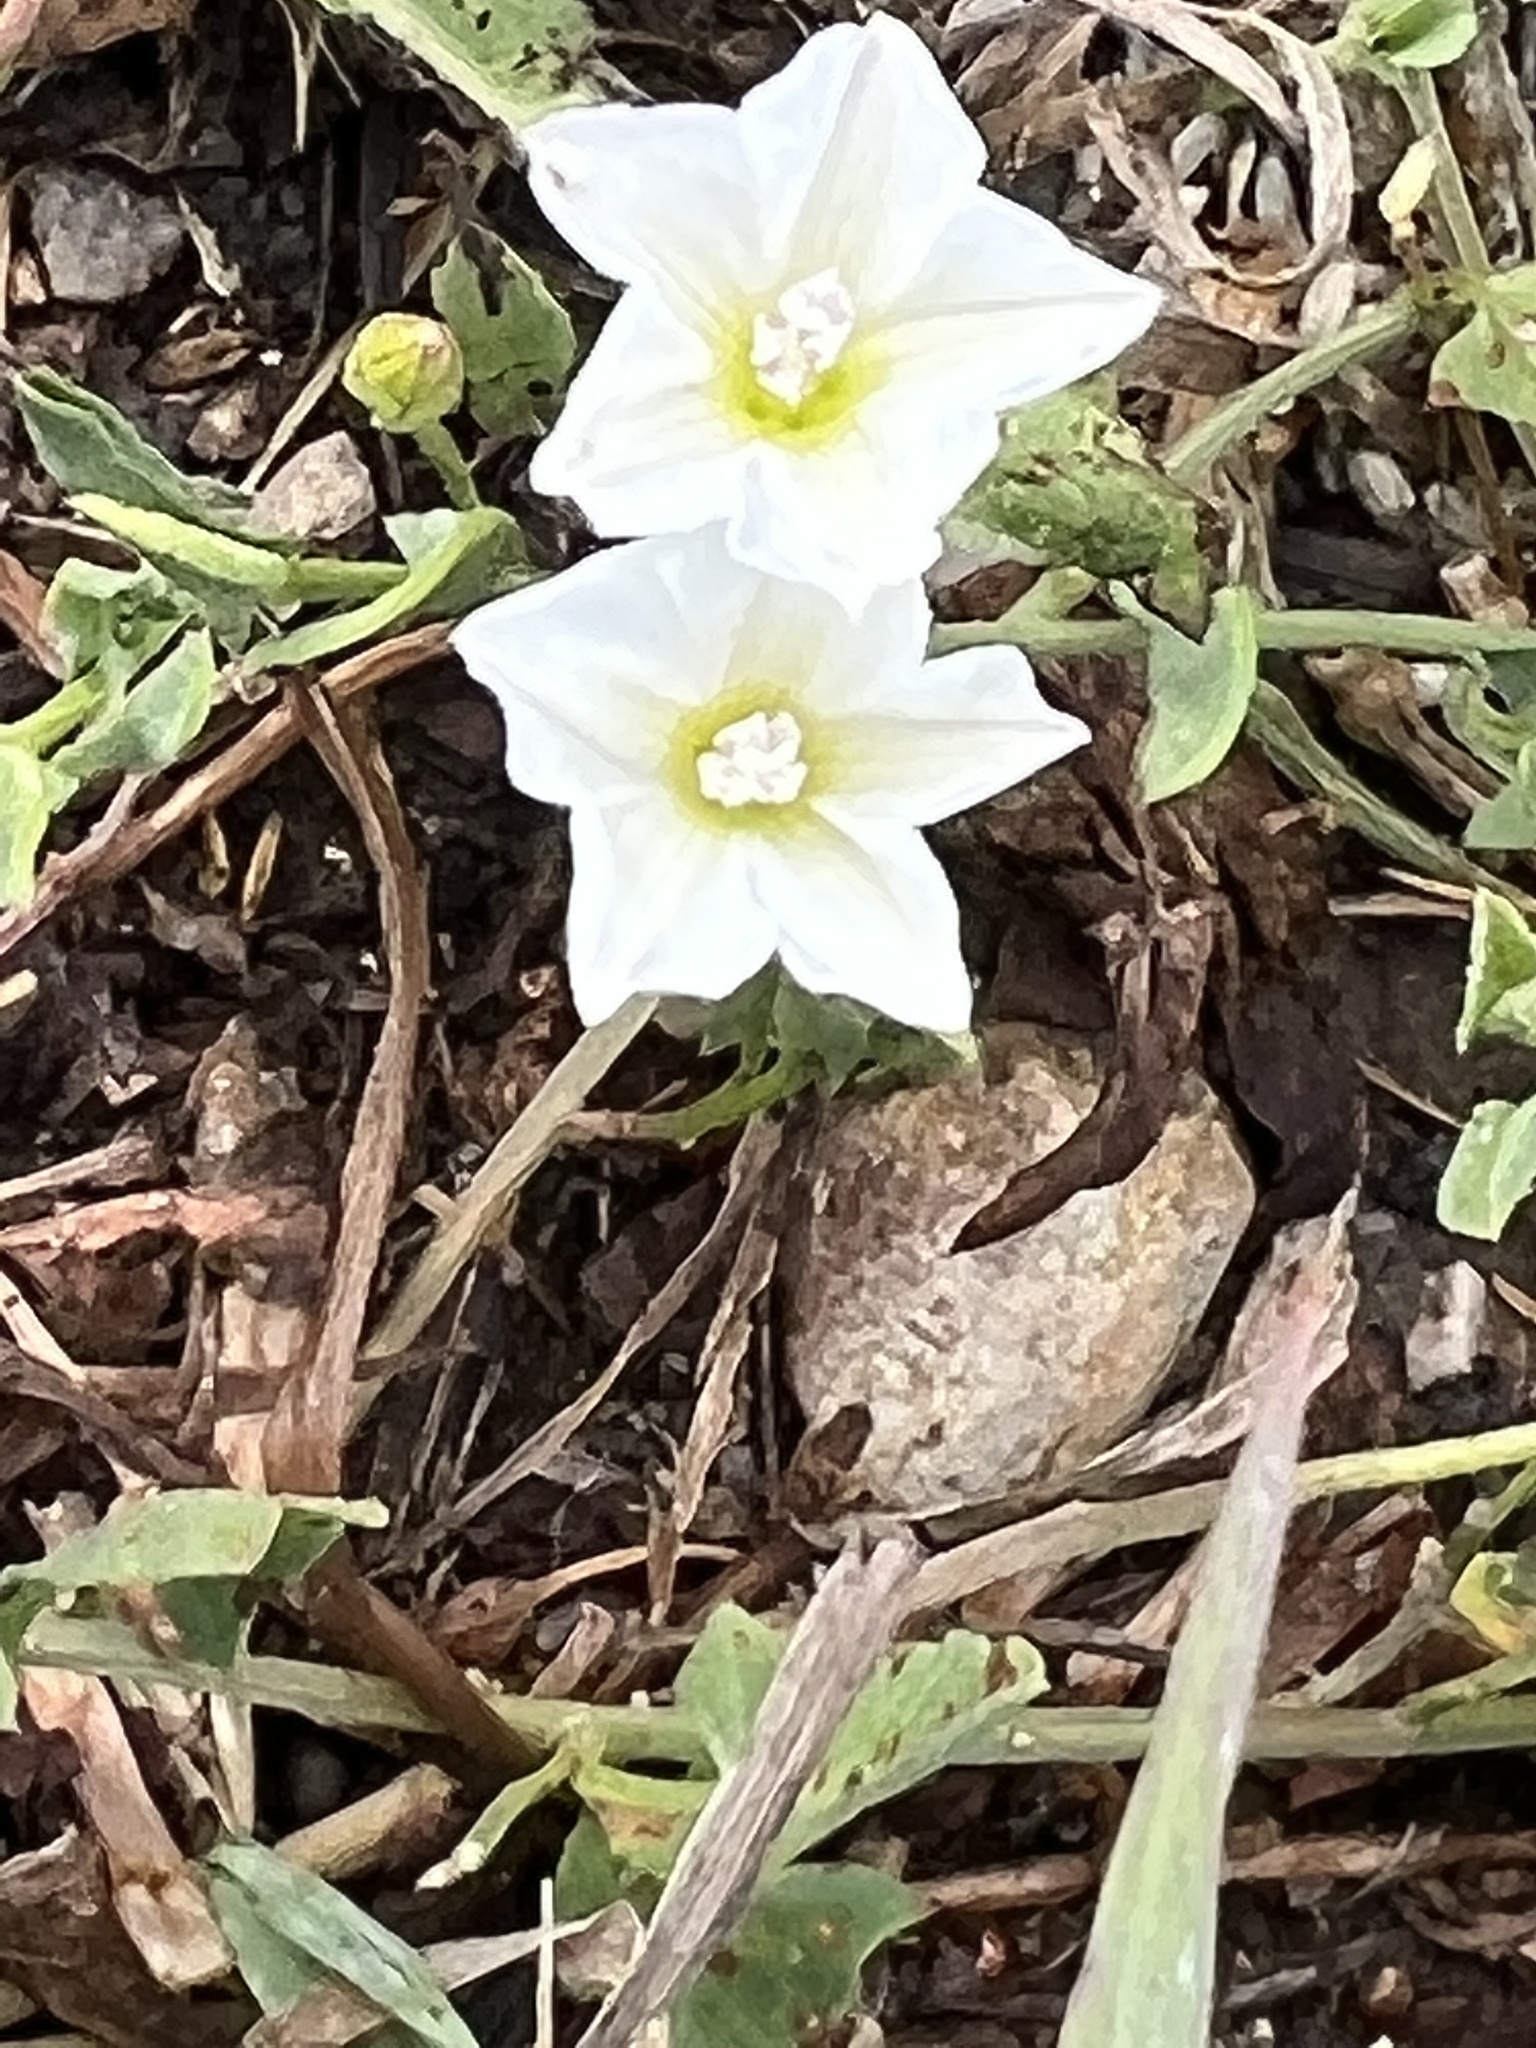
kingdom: Plantae
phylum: Tracheophyta
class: Magnoliopsida
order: Solanales
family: Convolvulaceae
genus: Convolvulus
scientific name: Convolvulus arvensis
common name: Field bindweed
